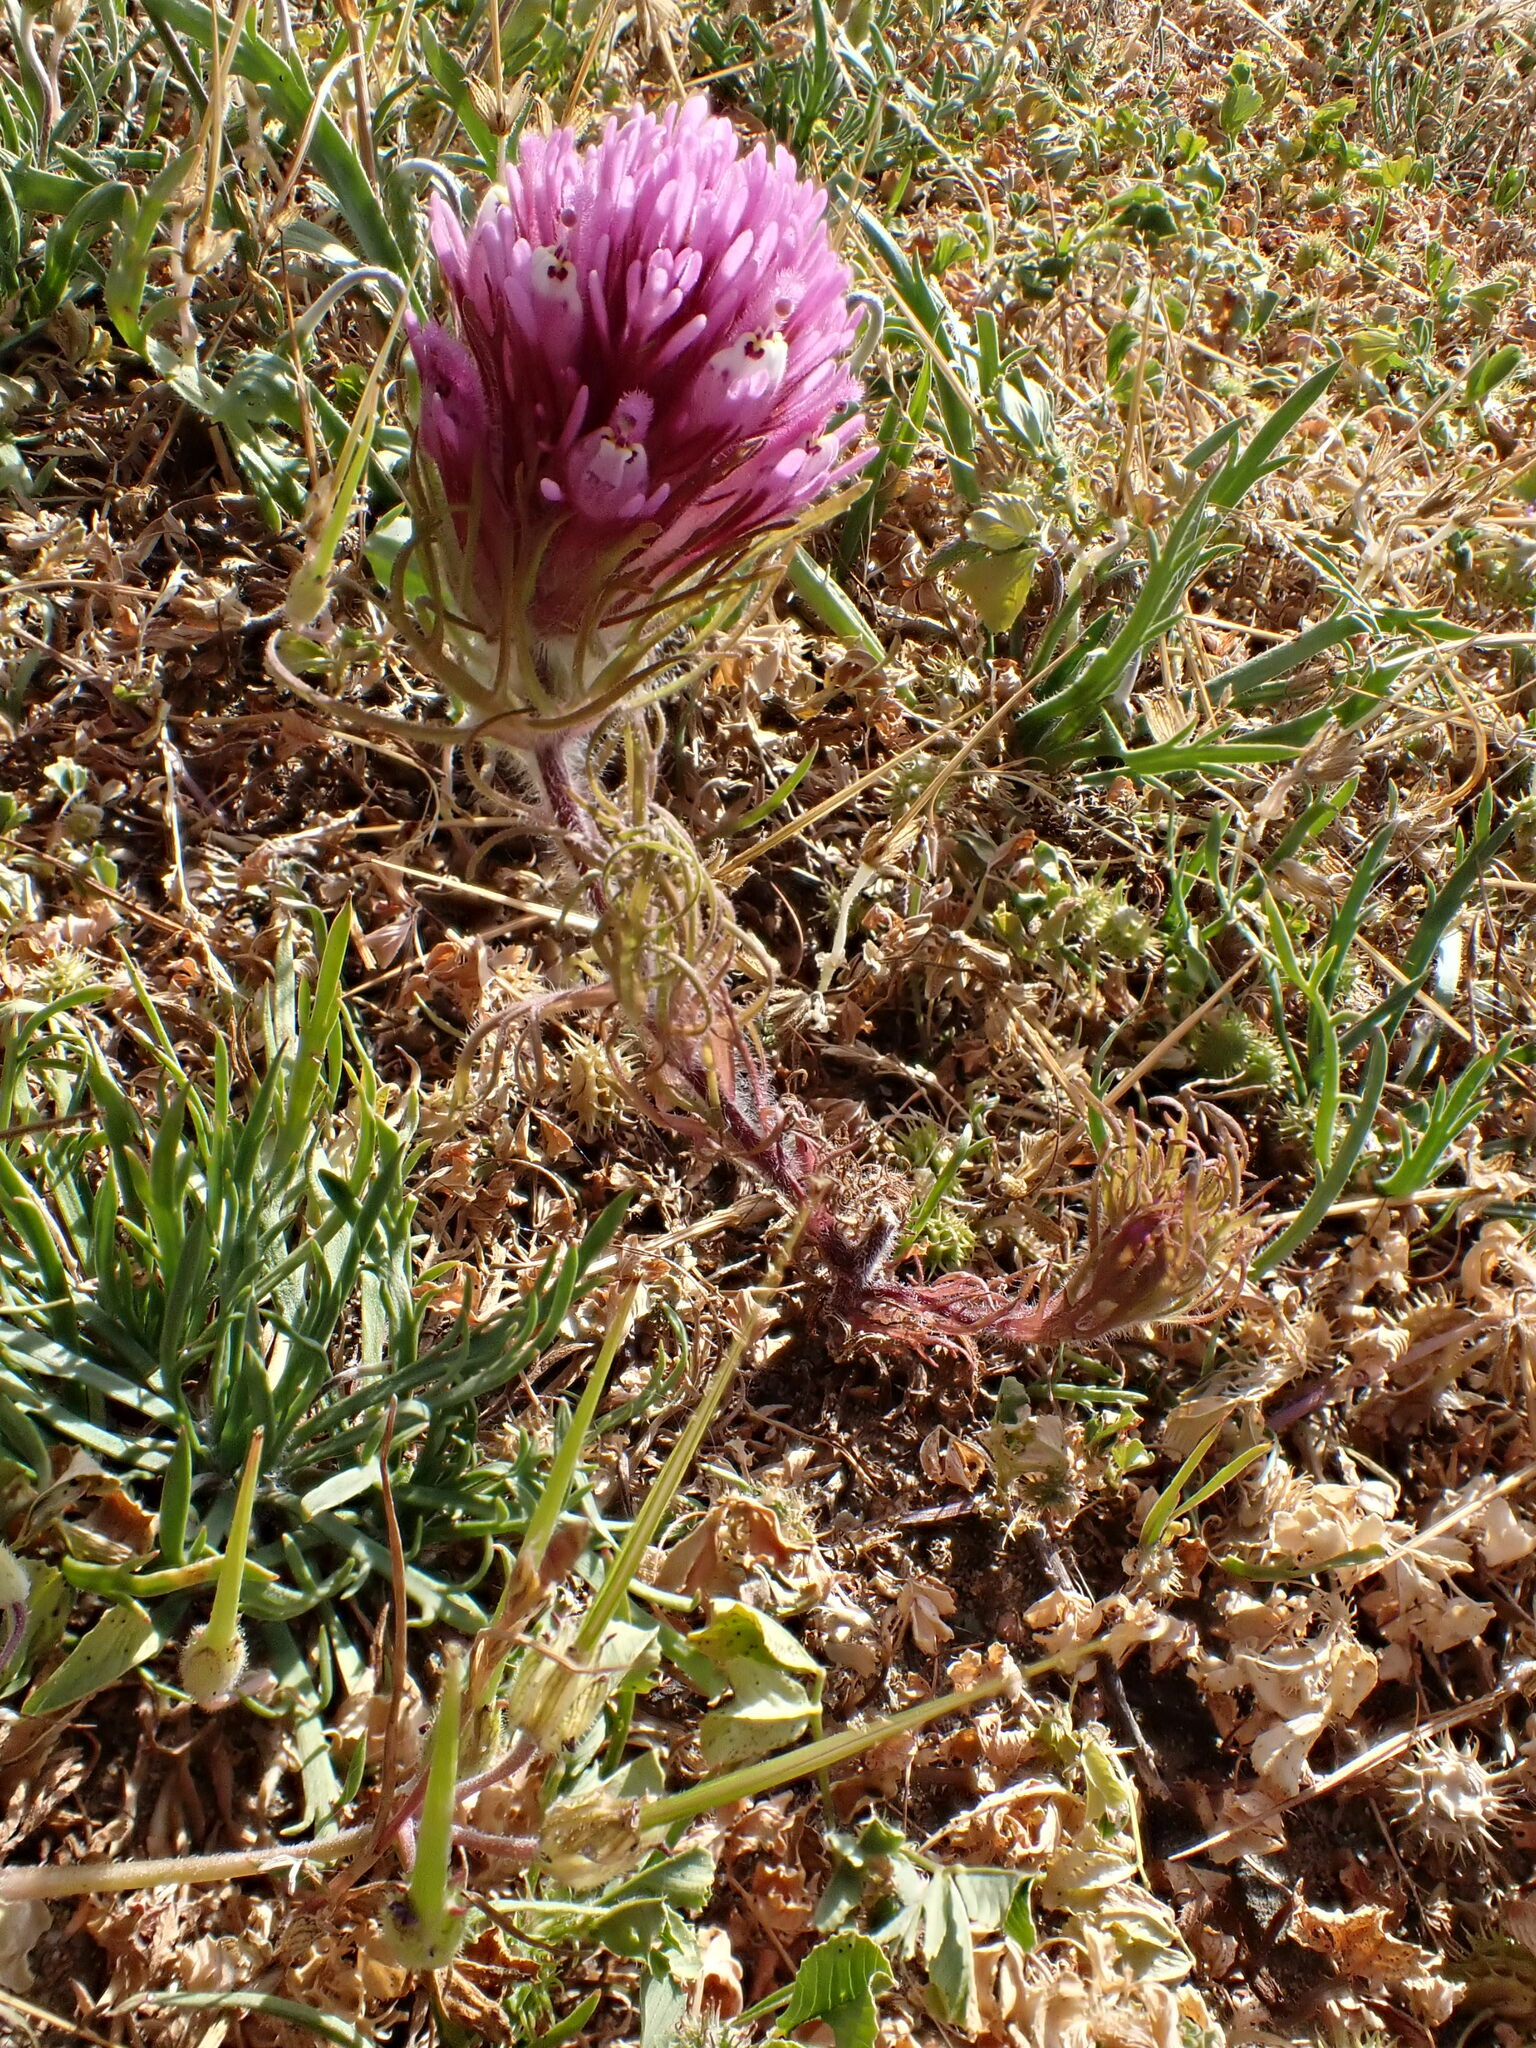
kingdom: Plantae
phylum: Tracheophyta
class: Magnoliopsida
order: Lamiales
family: Orobanchaceae
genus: Castilleja
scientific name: Castilleja exserta
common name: Purple owl-clover
